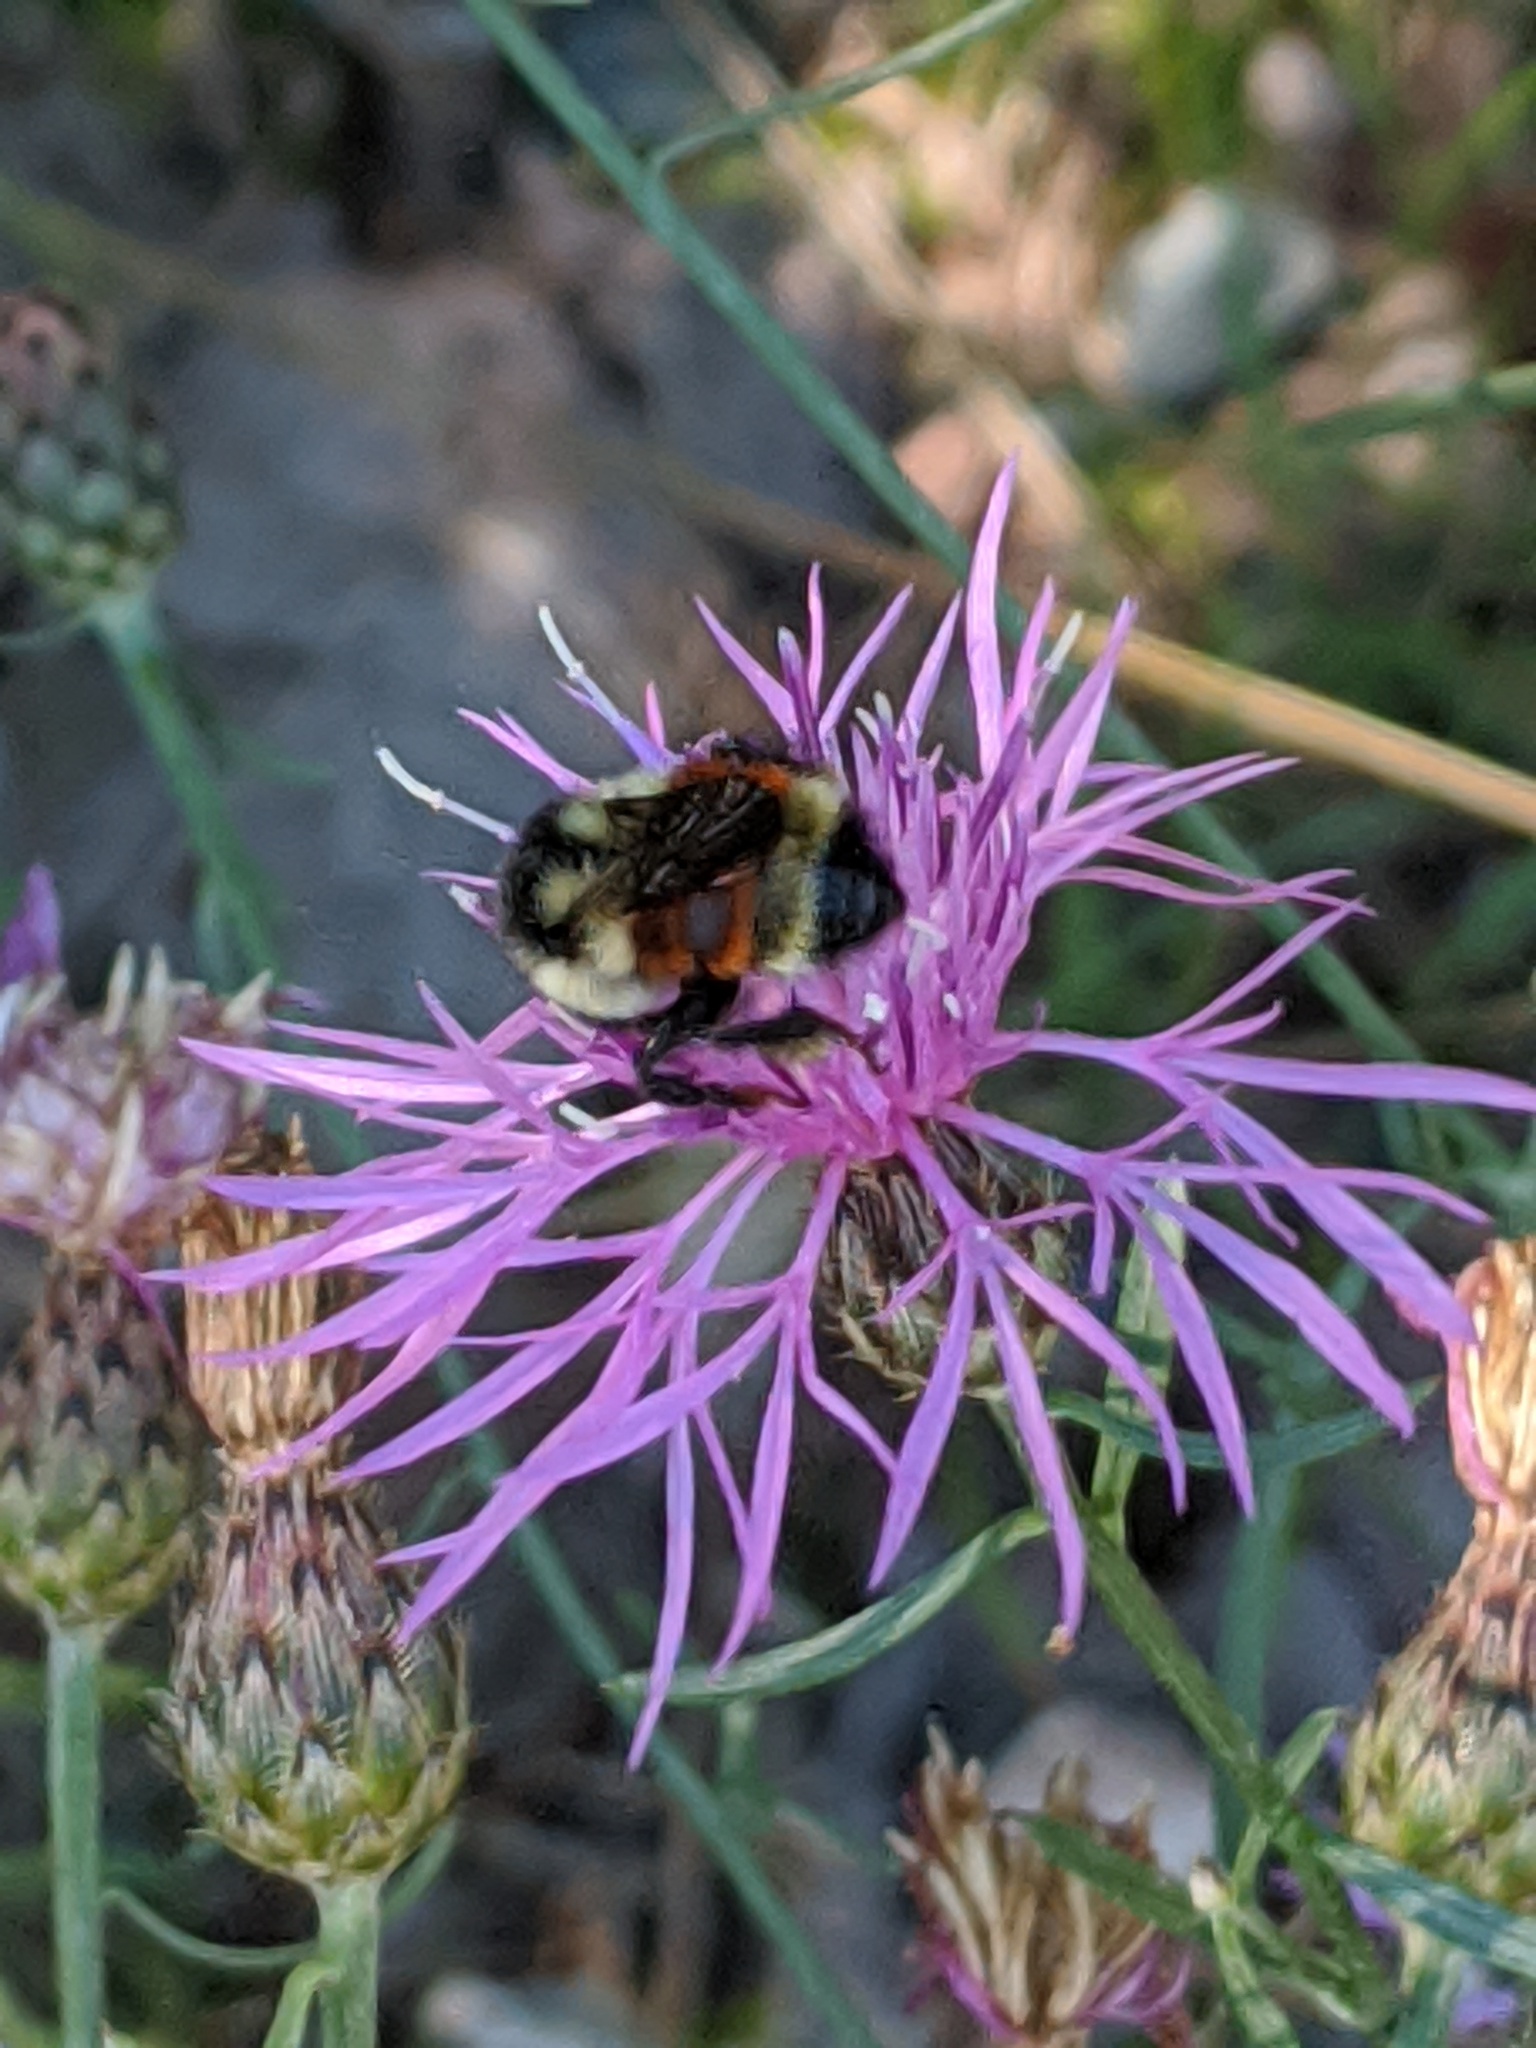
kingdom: Animalia
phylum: Arthropoda
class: Insecta
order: Hymenoptera
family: Apidae
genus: Bombus
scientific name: Bombus ternarius
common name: Tri-colored bumble bee
